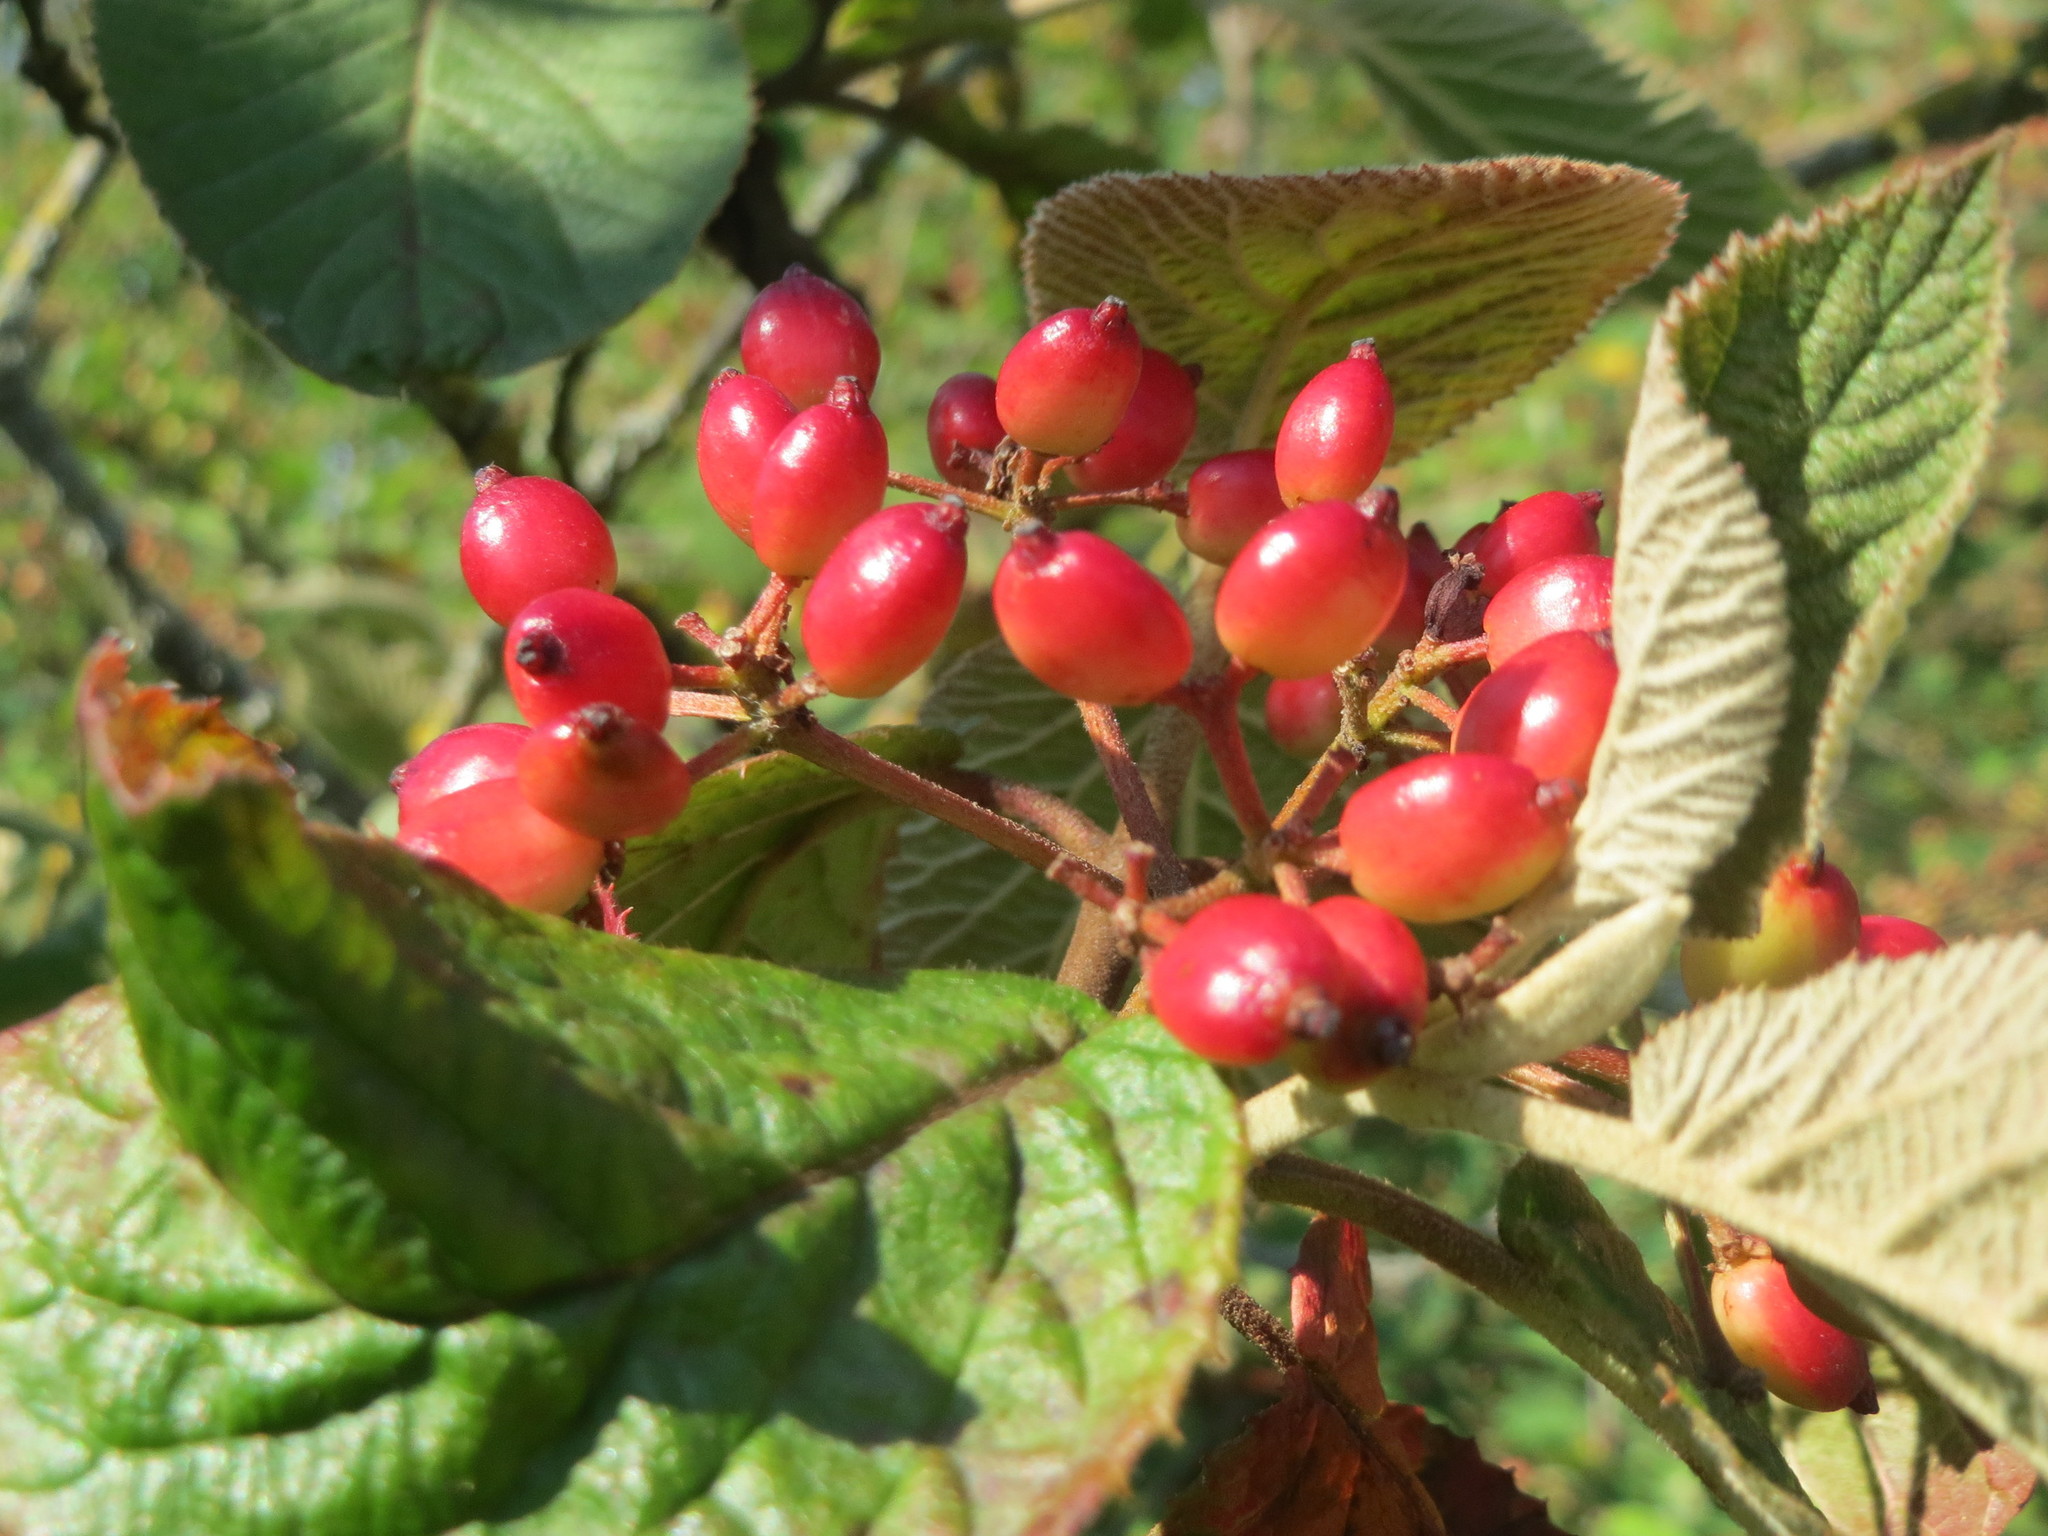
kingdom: Plantae
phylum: Tracheophyta
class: Magnoliopsida
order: Dipsacales
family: Viburnaceae
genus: Viburnum
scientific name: Viburnum lantana
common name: Wayfaring tree
